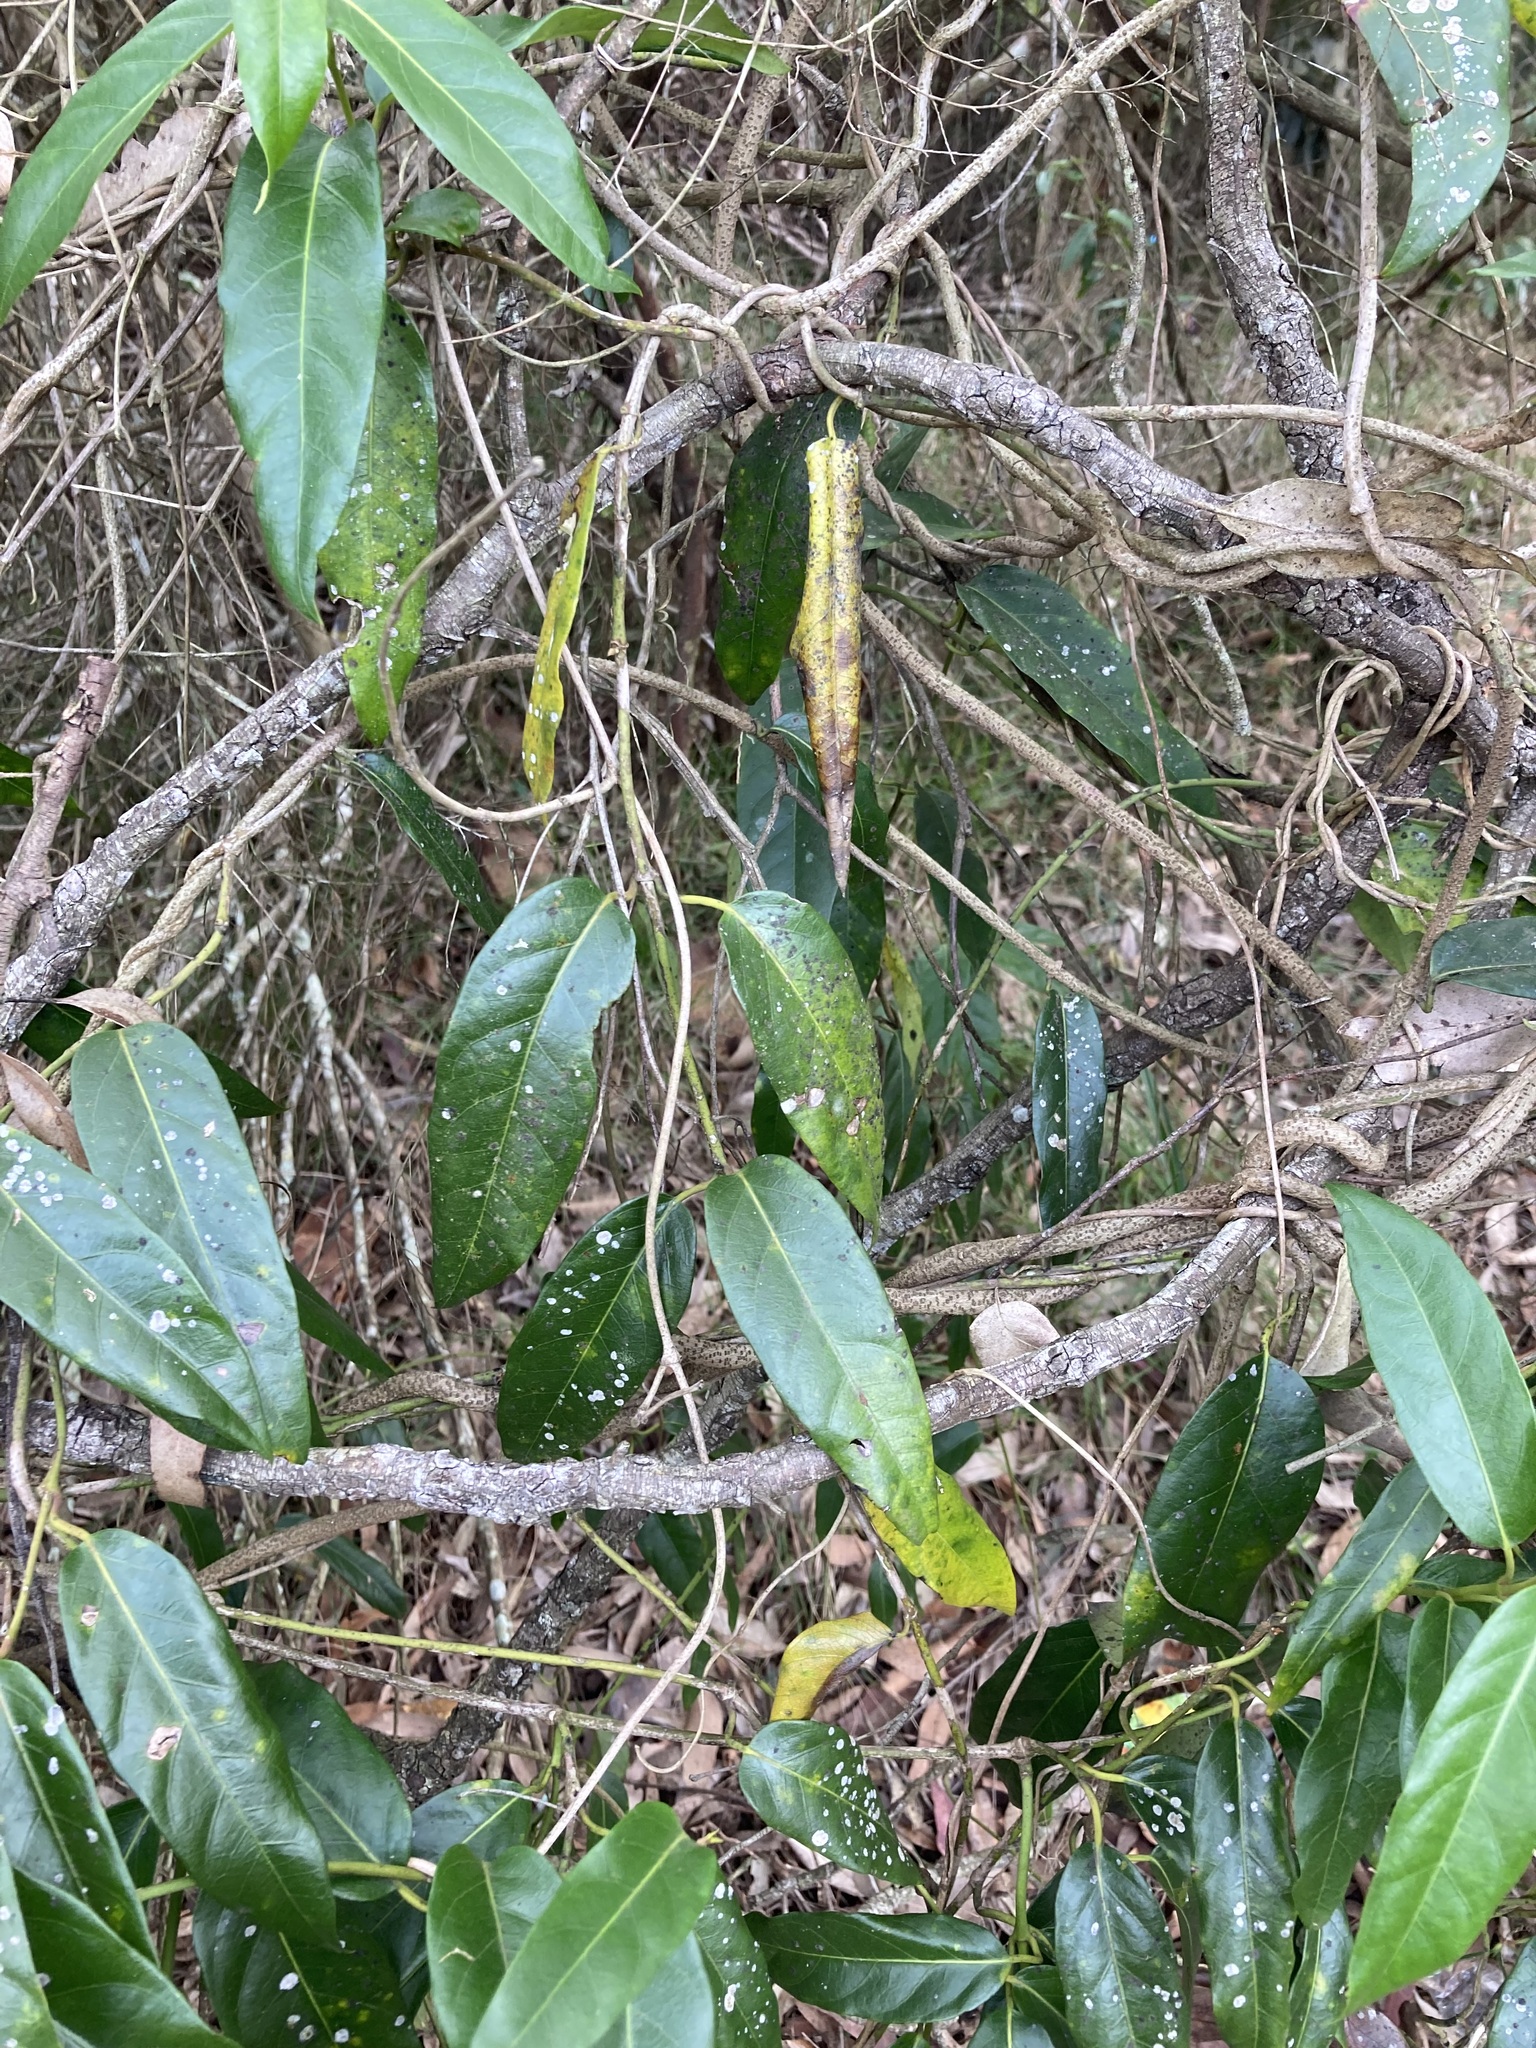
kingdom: Plantae
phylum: Tracheophyta
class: Magnoliopsida
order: Gentianales
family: Apocynaceae
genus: Parsonsia
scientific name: Parsonsia straminea
